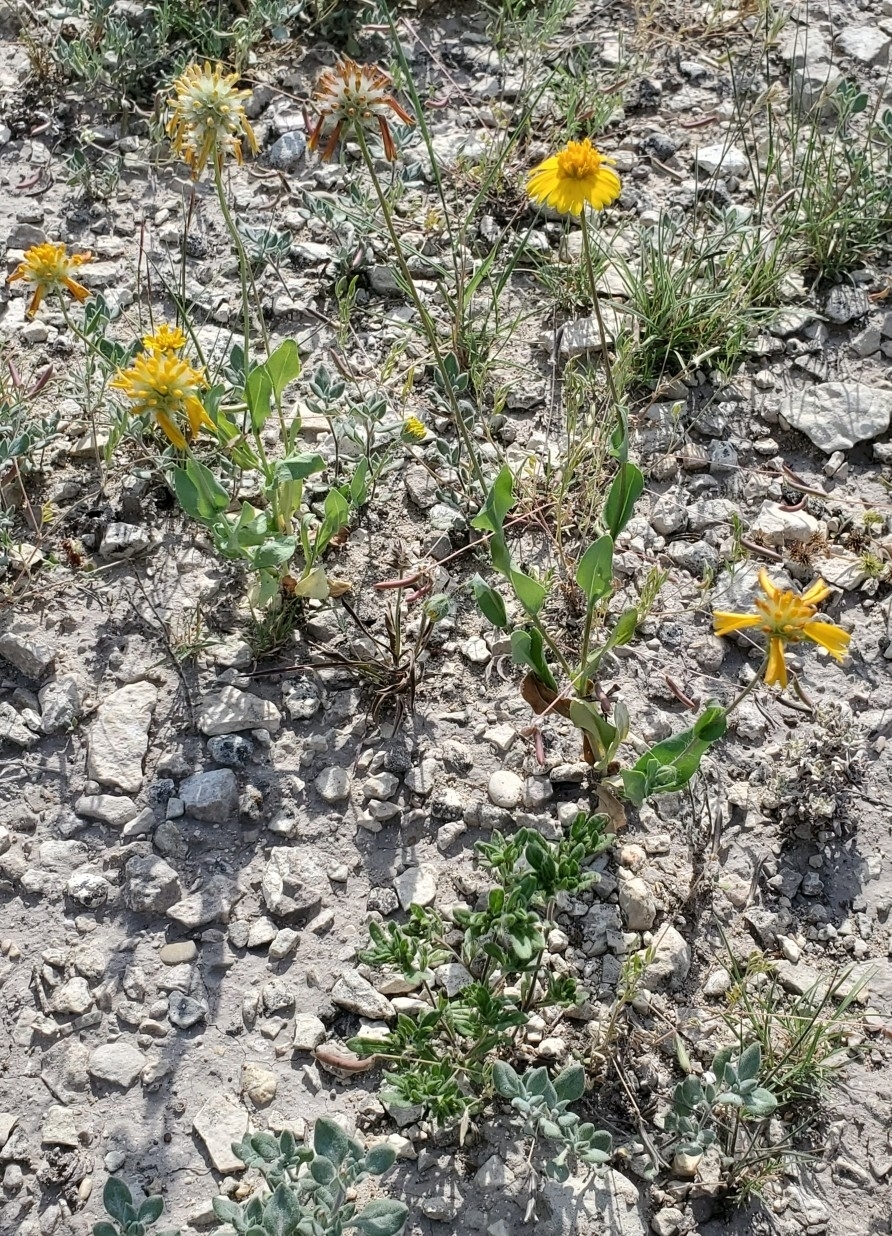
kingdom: Plantae
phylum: Tracheophyta
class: Magnoliopsida
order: Asterales
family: Asteraceae
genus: Amblyolepis
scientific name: Amblyolepis setigera
